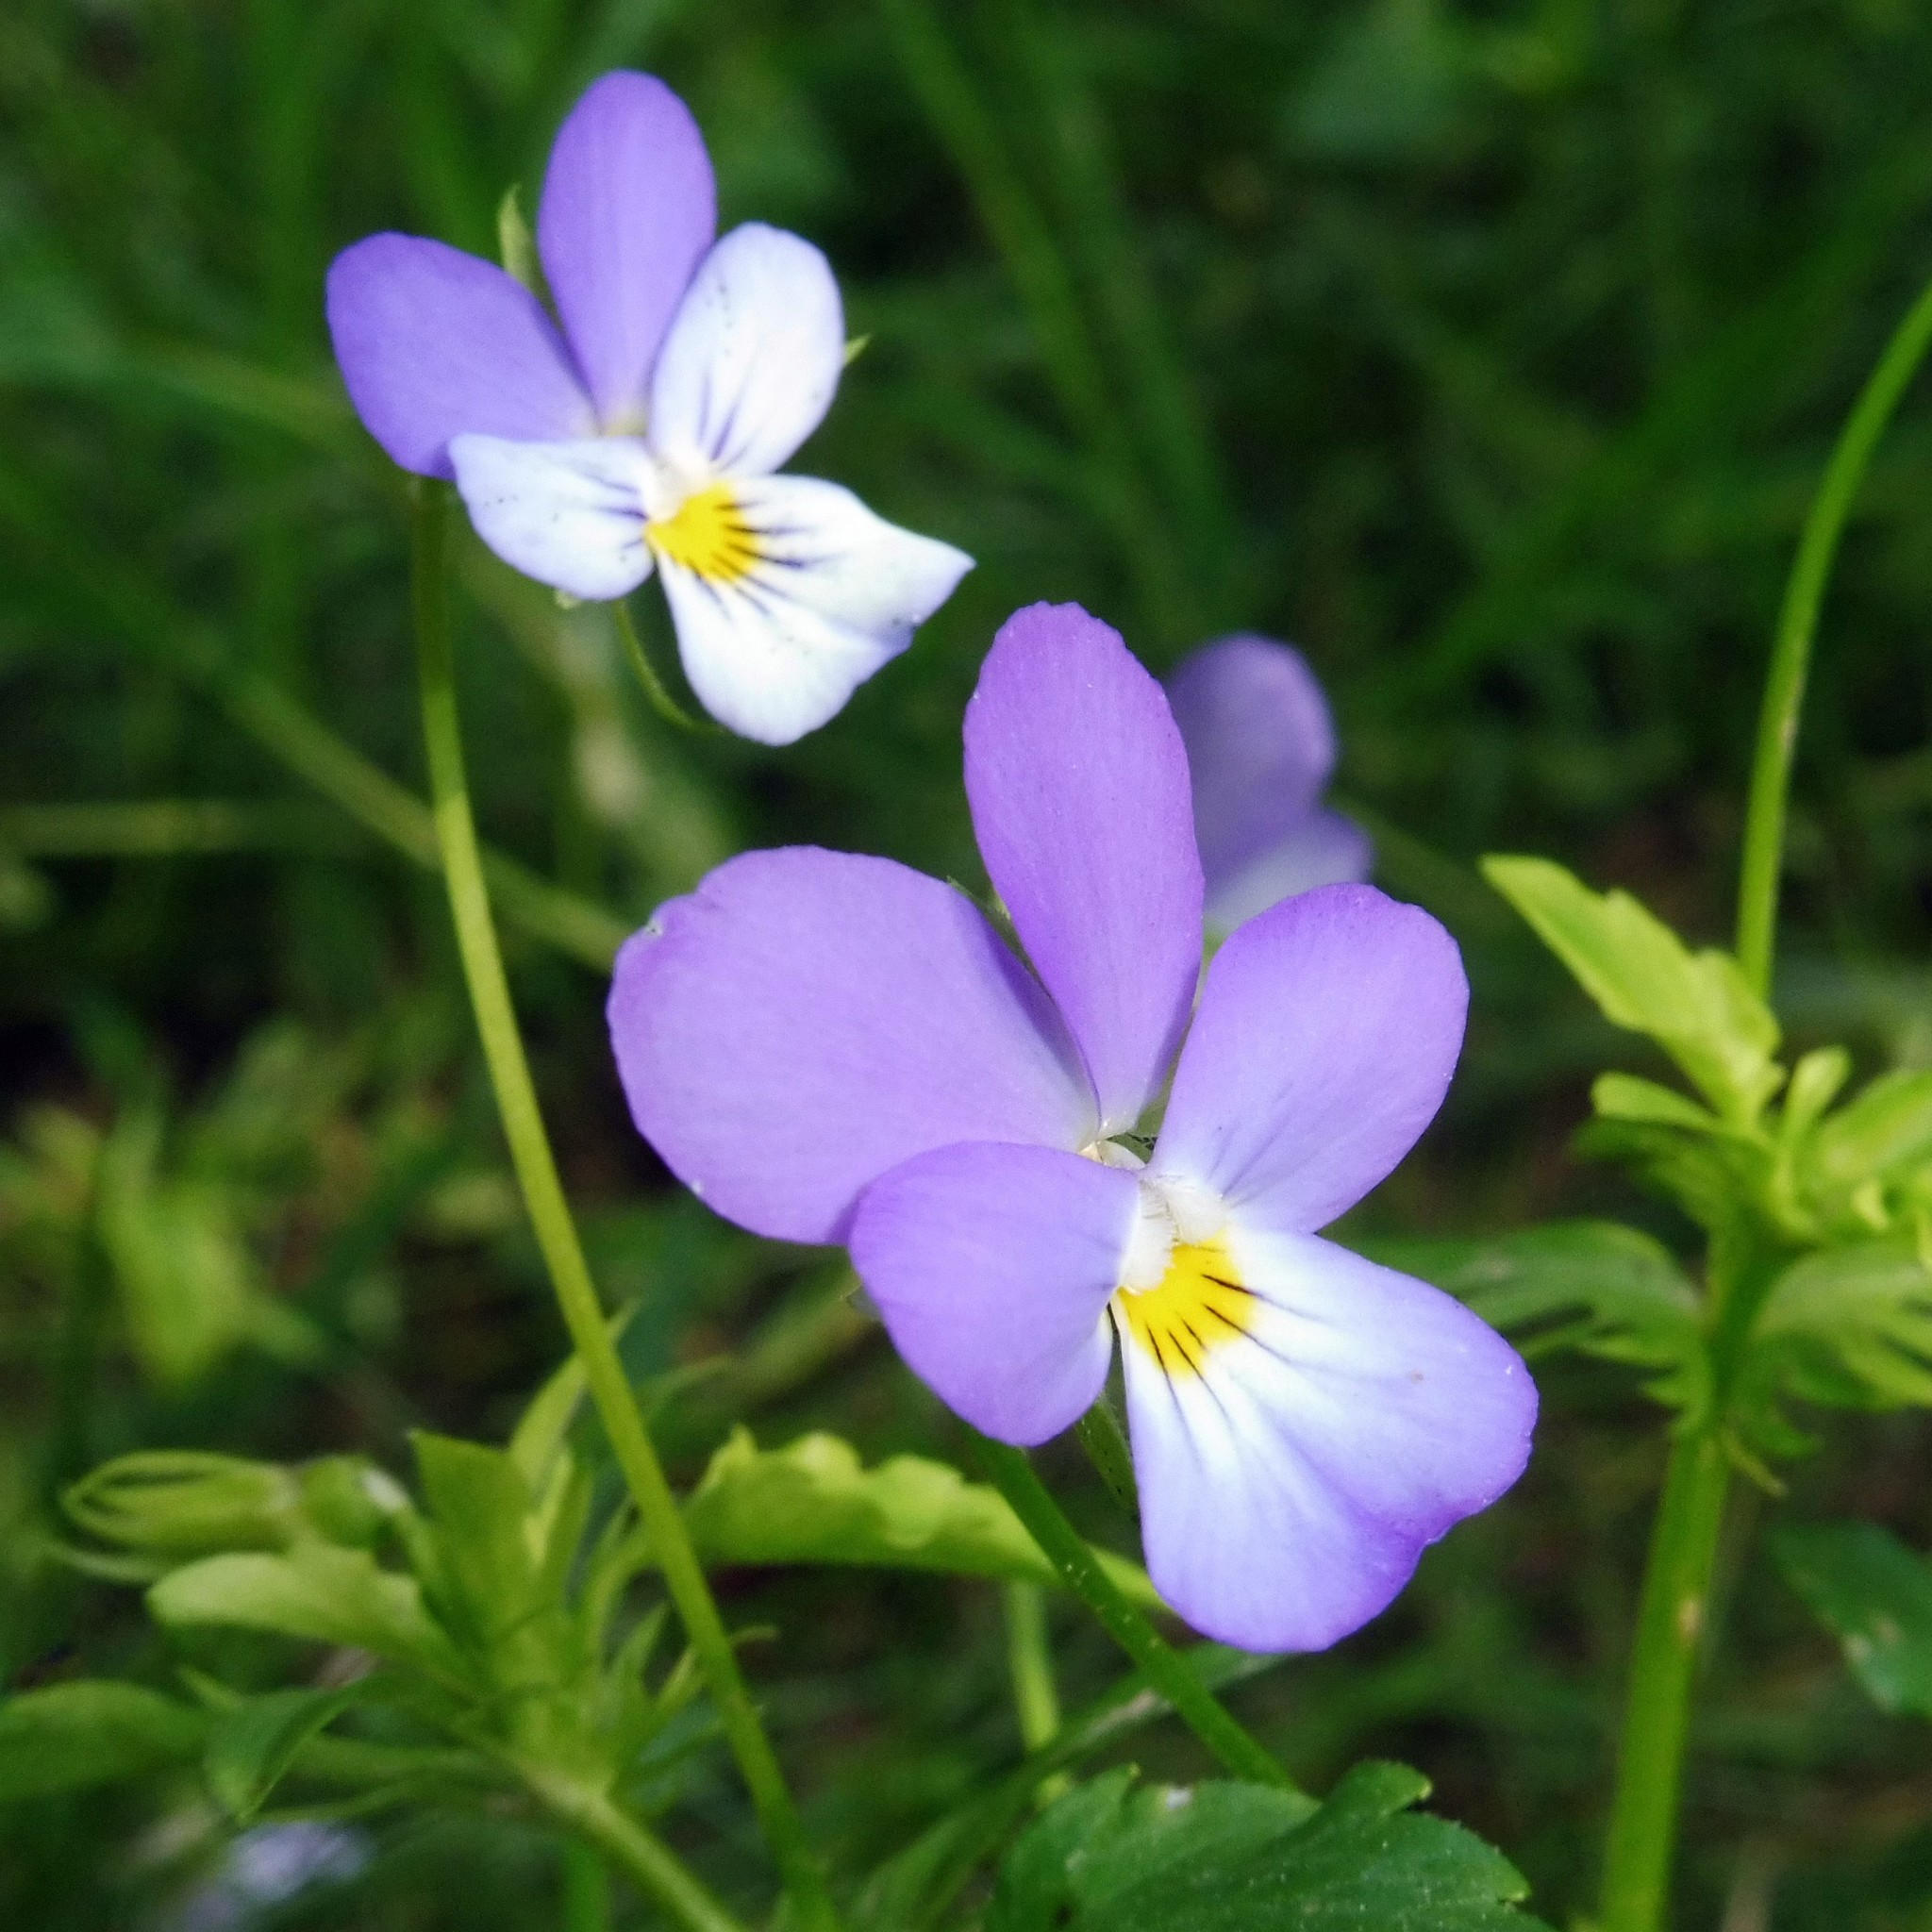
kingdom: Plantae
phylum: Tracheophyta
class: Magnoliopsida
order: Malpighiales
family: Violaceae
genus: Viola
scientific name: Viola tricolor
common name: Pansy
